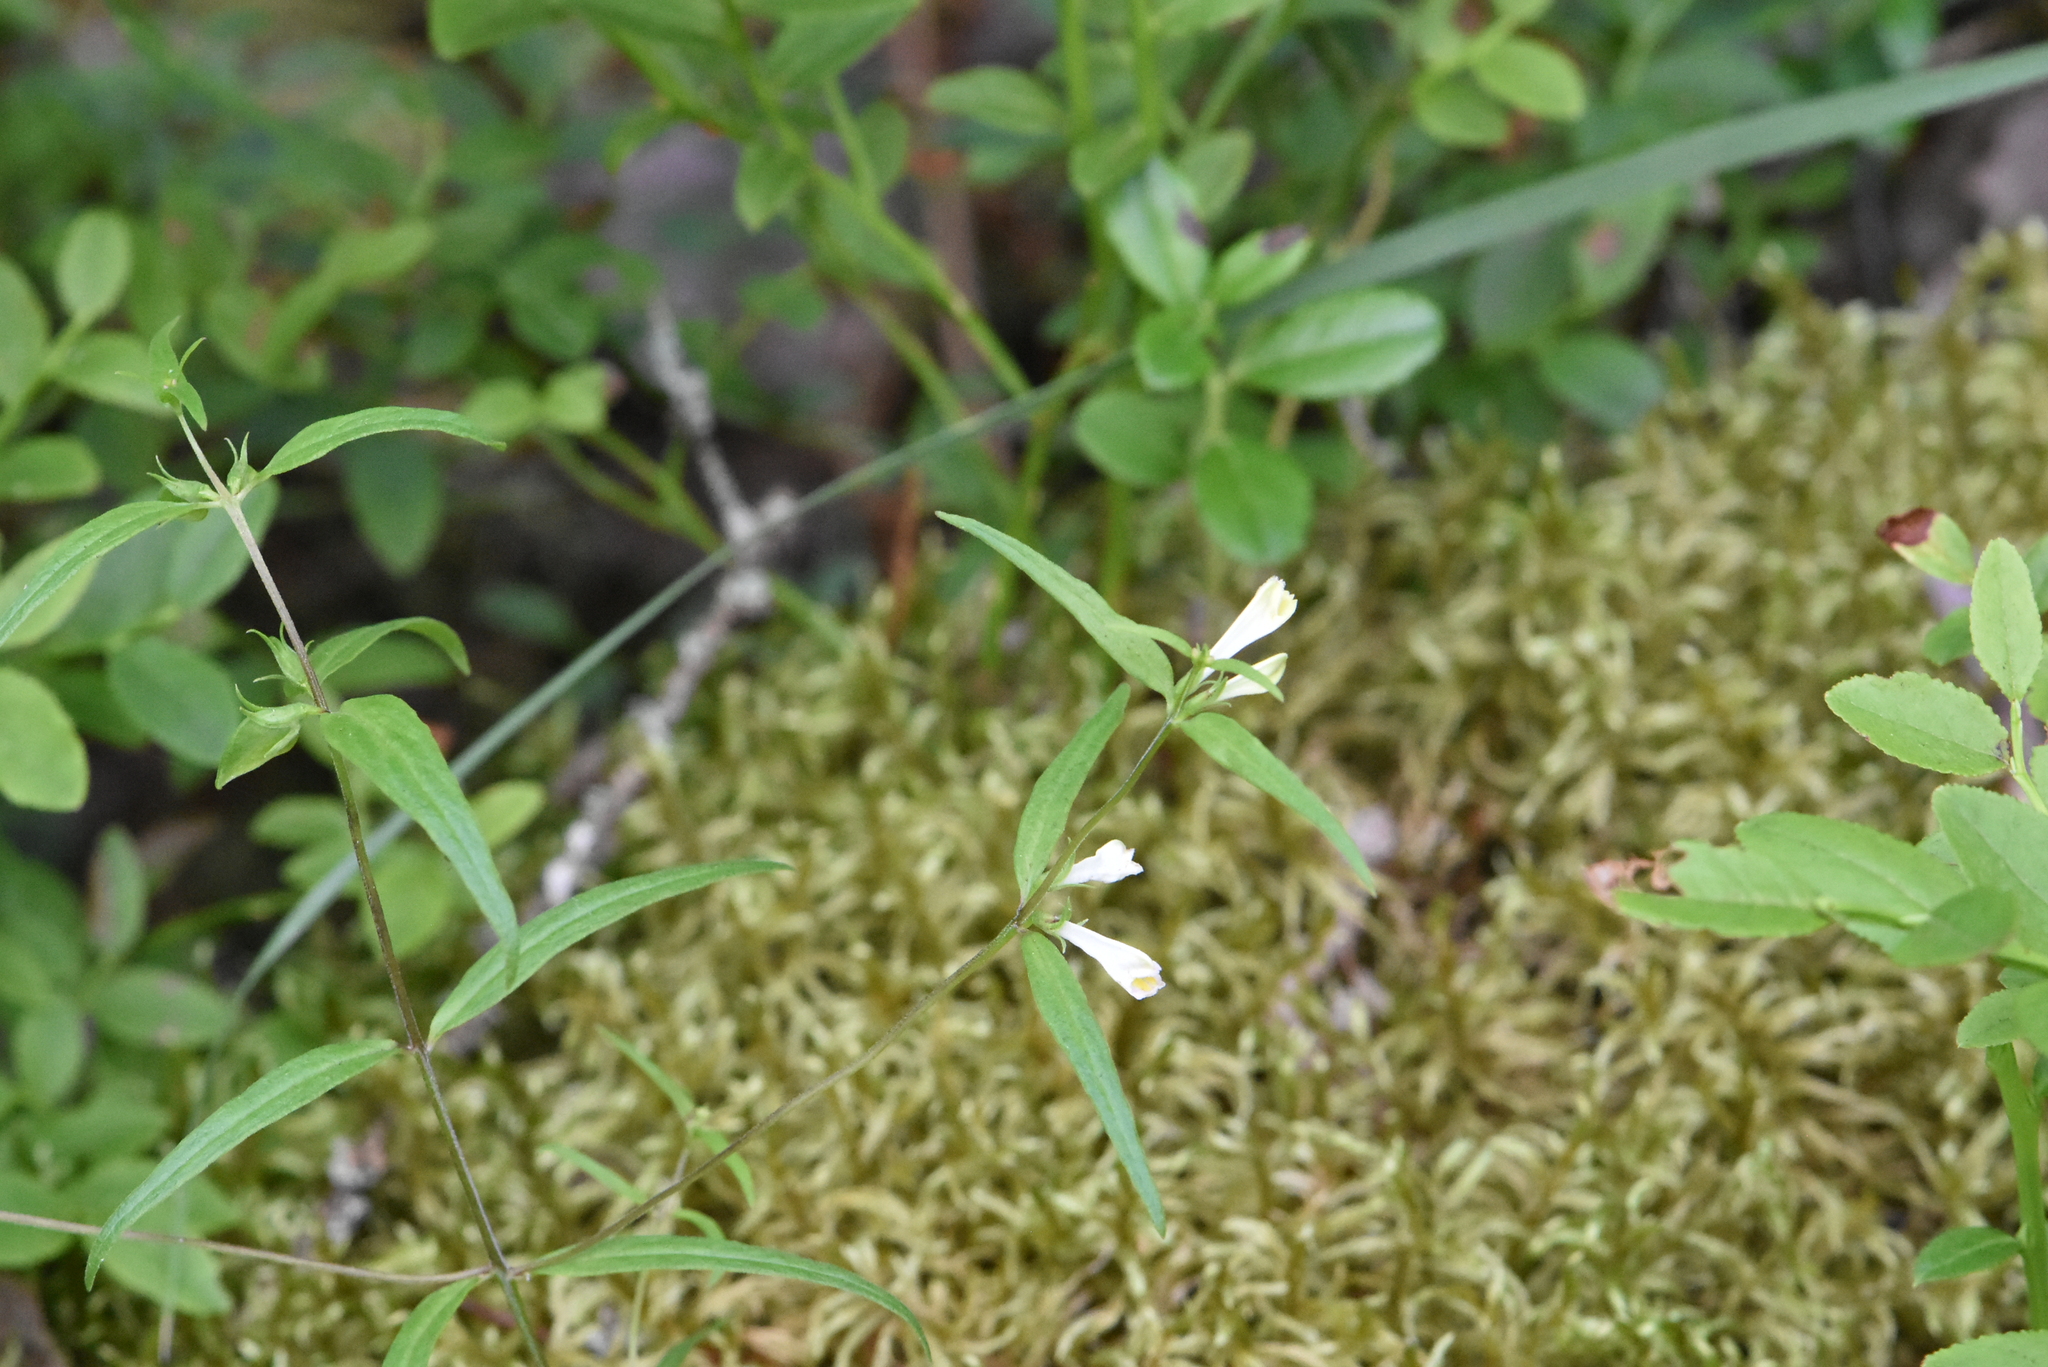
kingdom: Plantae
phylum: Tracheophyta
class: Magnoliopsida
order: Lamiales
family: Orobanchaceae
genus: Melampyrum
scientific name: Melampyrum pratense
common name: Common cow-wheat
